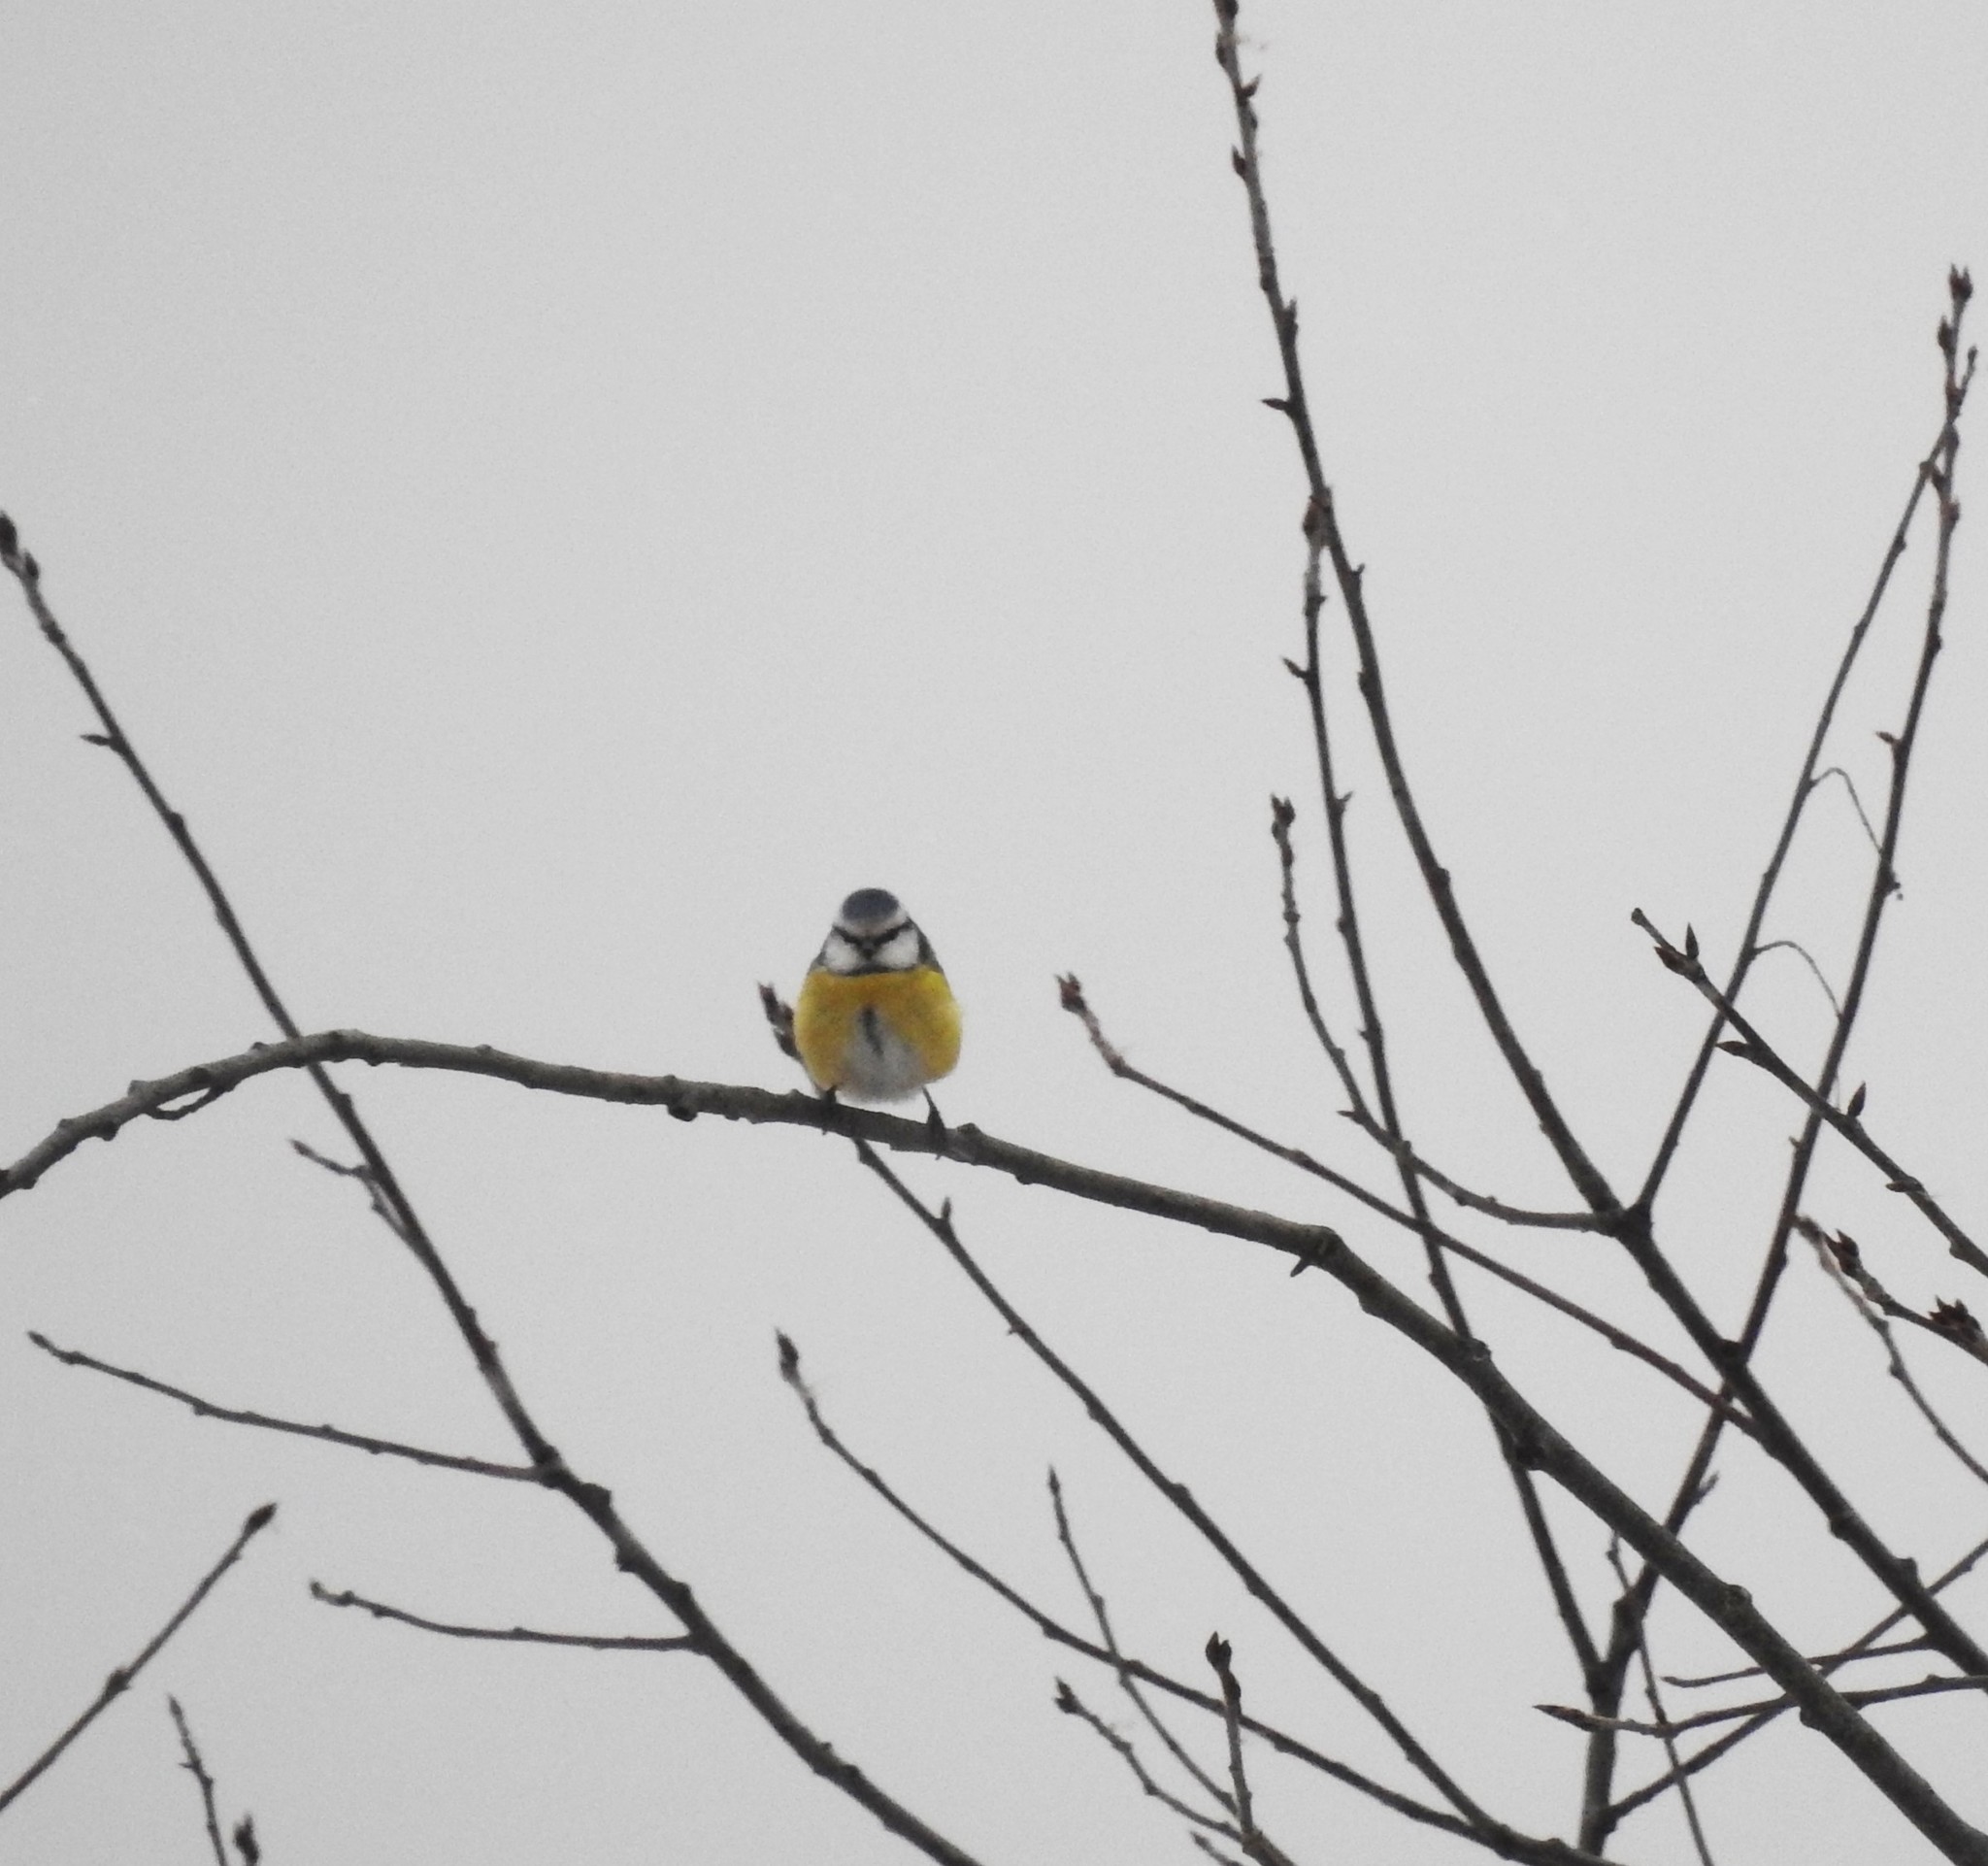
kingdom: Animalia
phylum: Chordata
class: Aves
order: Passeriformes
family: Paridae
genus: Cyanistes
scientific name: Cyanistes caeruleus
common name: Eurasian blue tit
